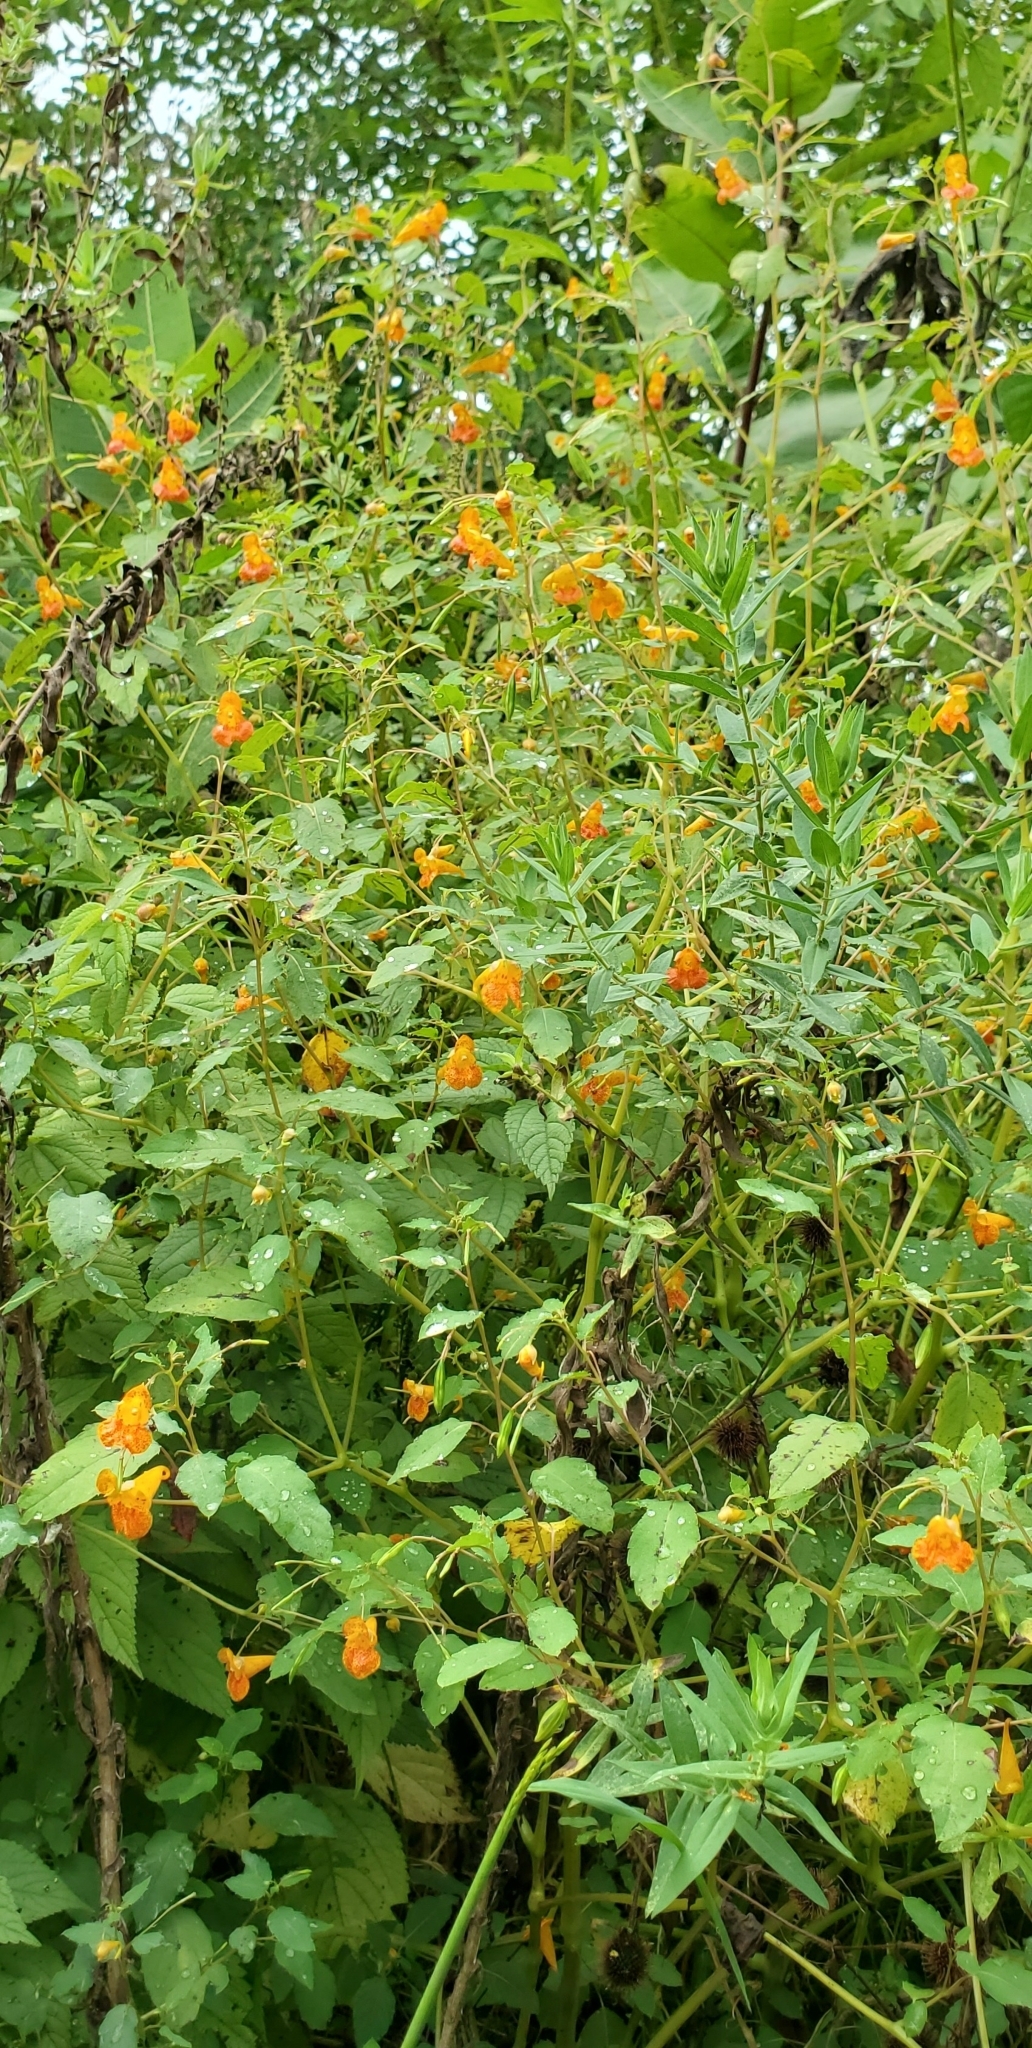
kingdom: Plantae
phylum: Tracheophyta
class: Magnoliopsida
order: Ericales
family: Balsaminaceae
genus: Impatiens
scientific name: Impatiens capensis
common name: Orange balsam
